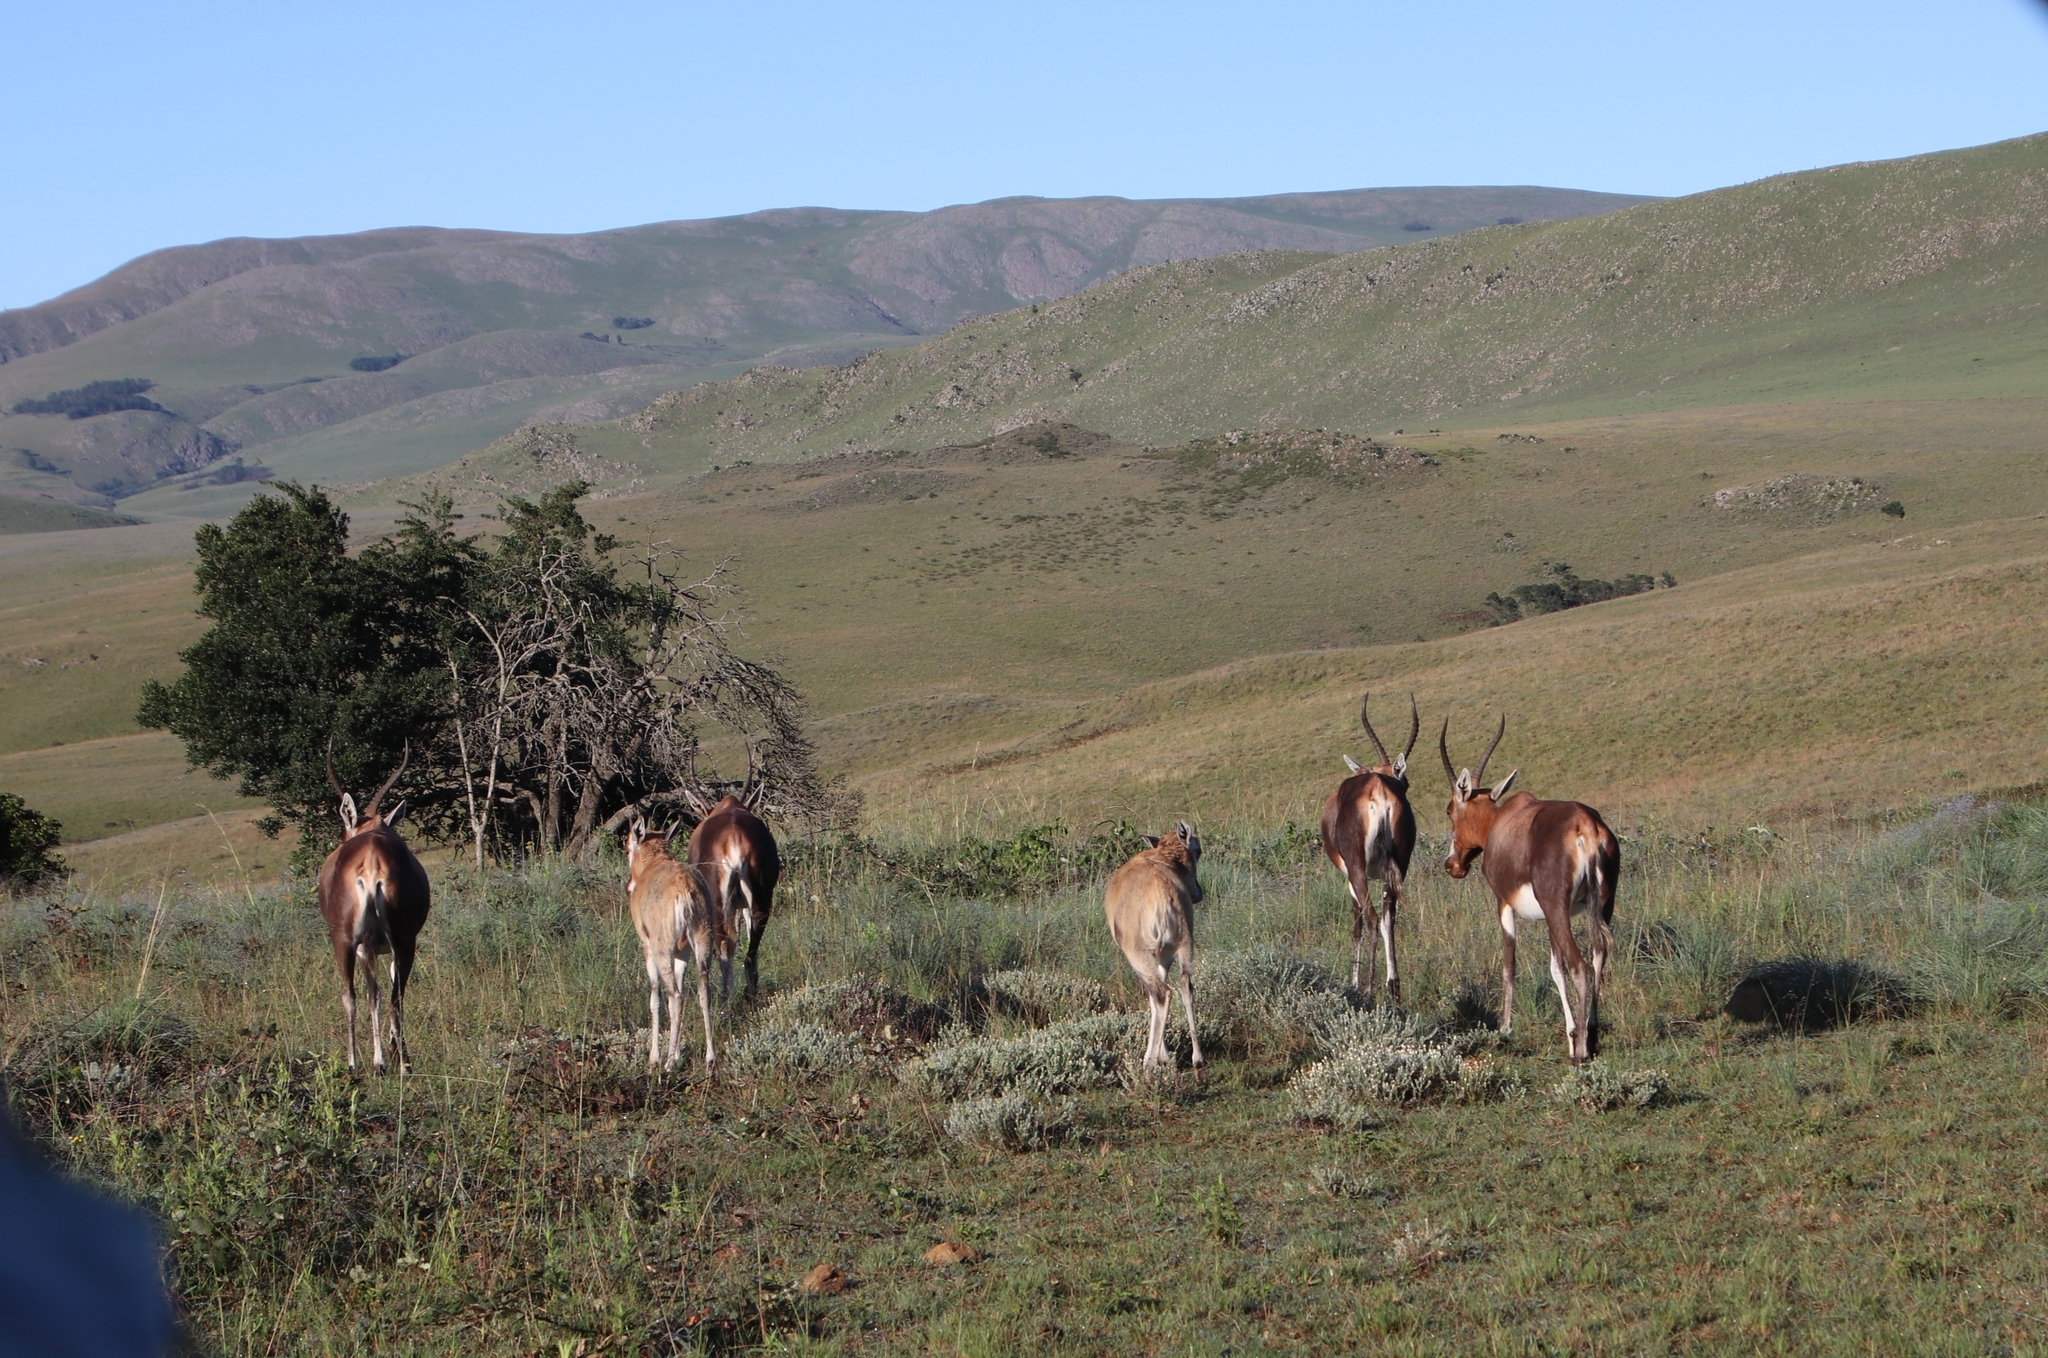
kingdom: Animalia
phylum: Chordata
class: Mammalia
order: Artiodactyla
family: Bovidae
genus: Damaliscus
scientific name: Damaliscus pygargus
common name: Bontebok
